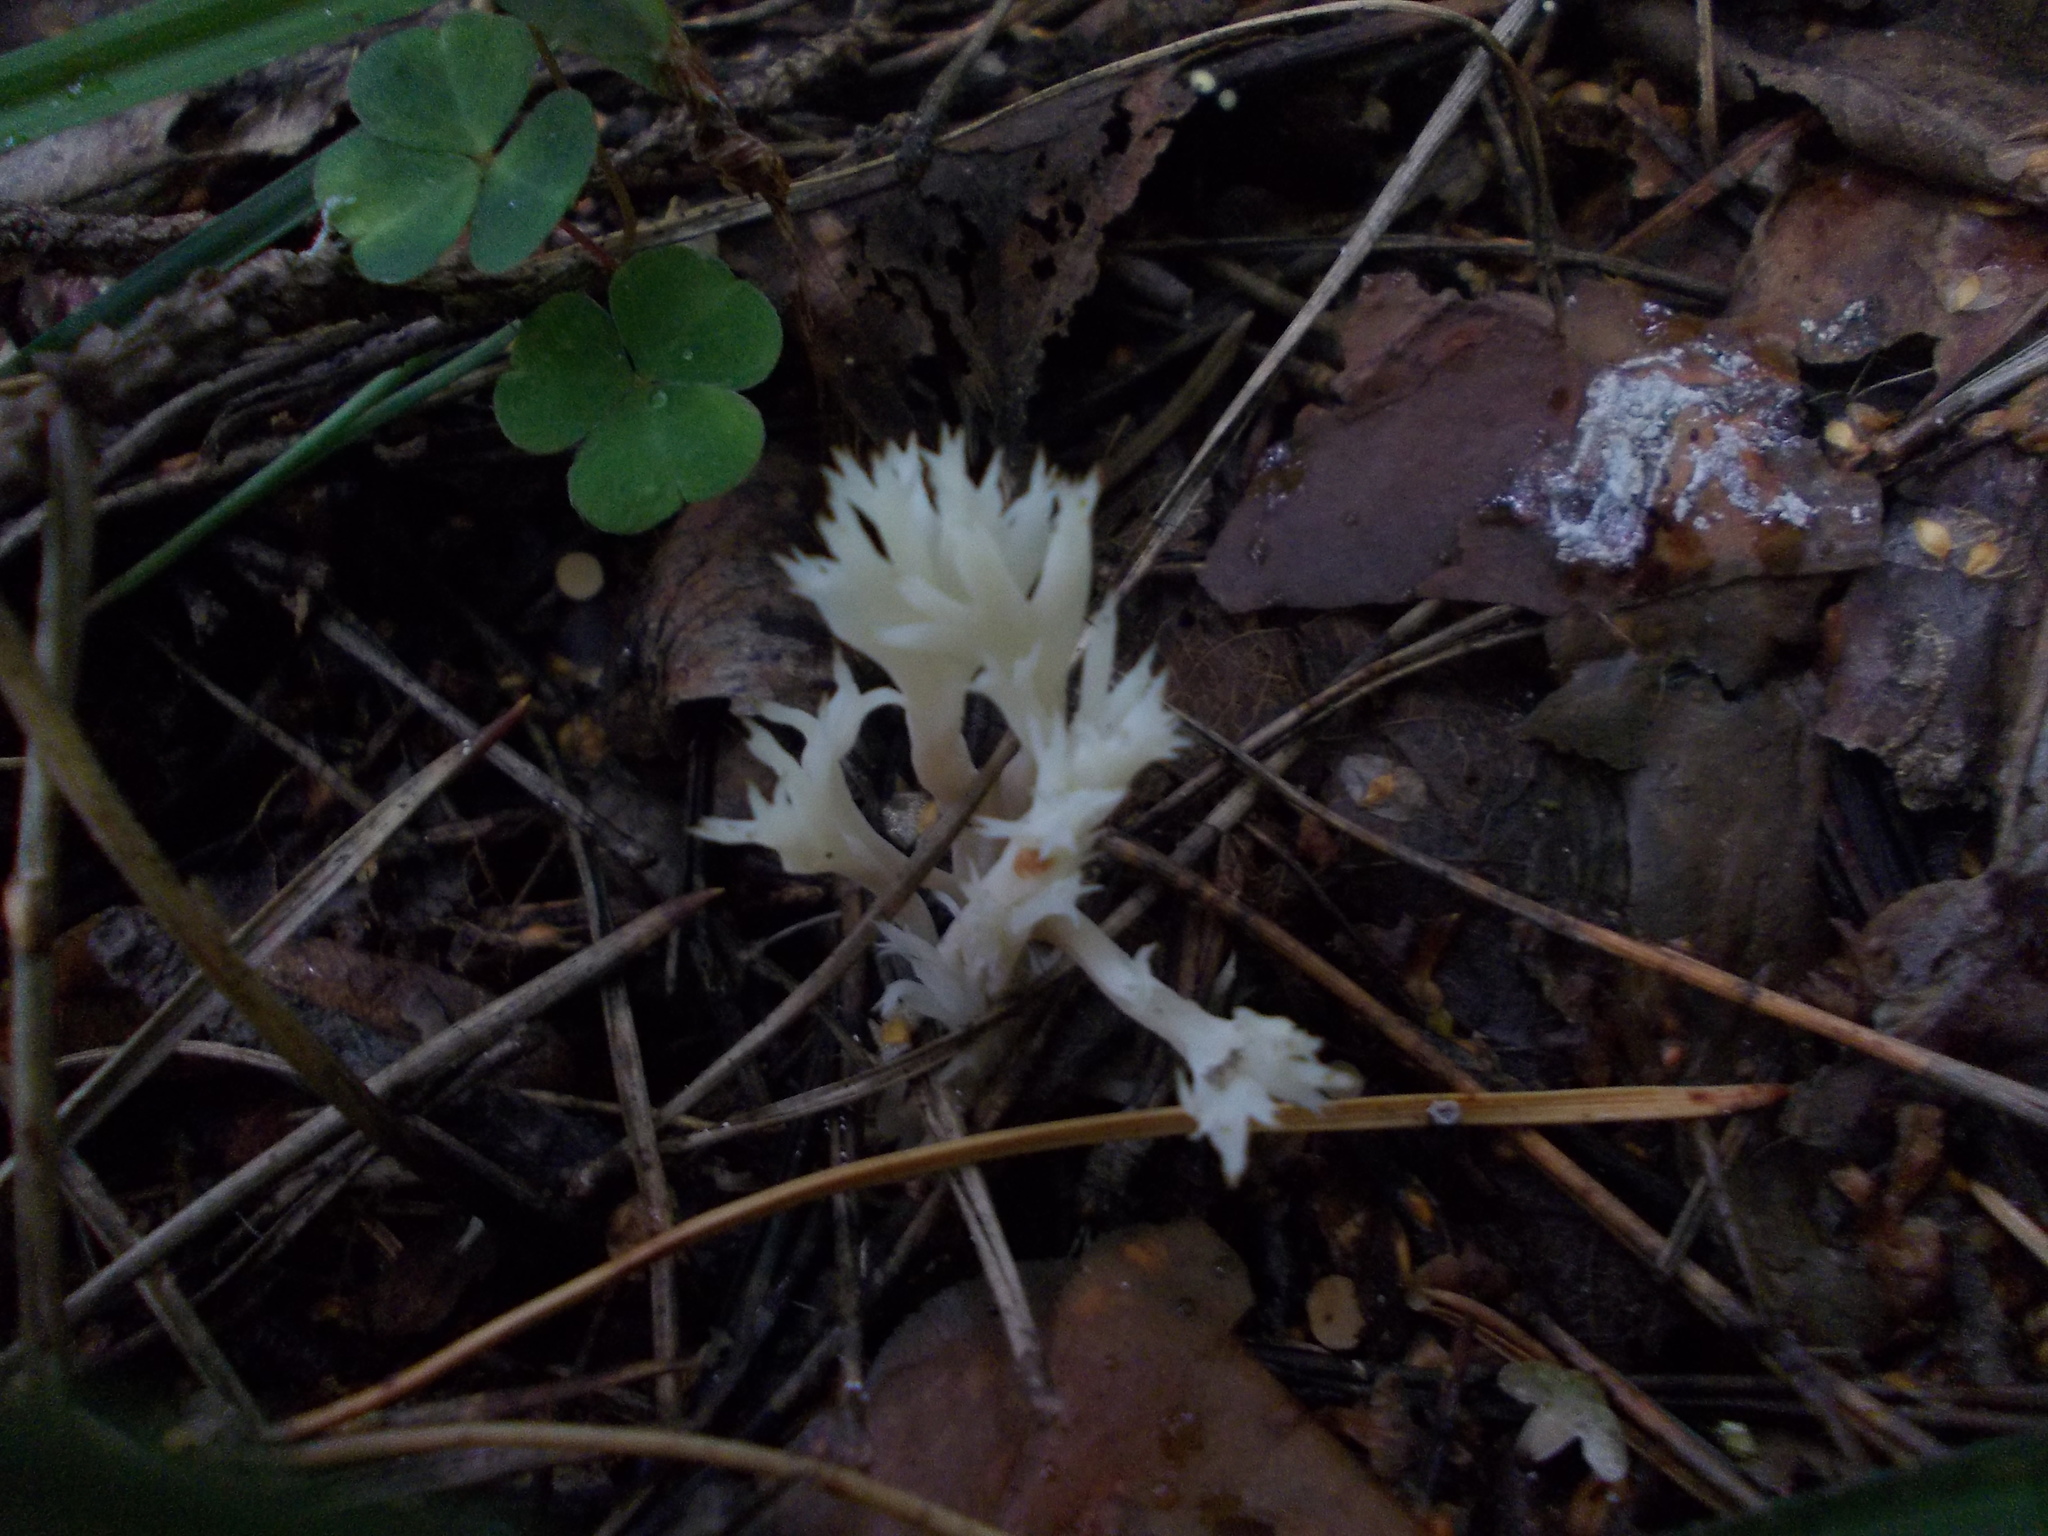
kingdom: Fungi
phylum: Basidiomycota
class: Agaricomycetes
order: Cantharellales
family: Hydnaceae
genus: Clavulina
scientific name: Clavulina coralloides
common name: Crested coral
